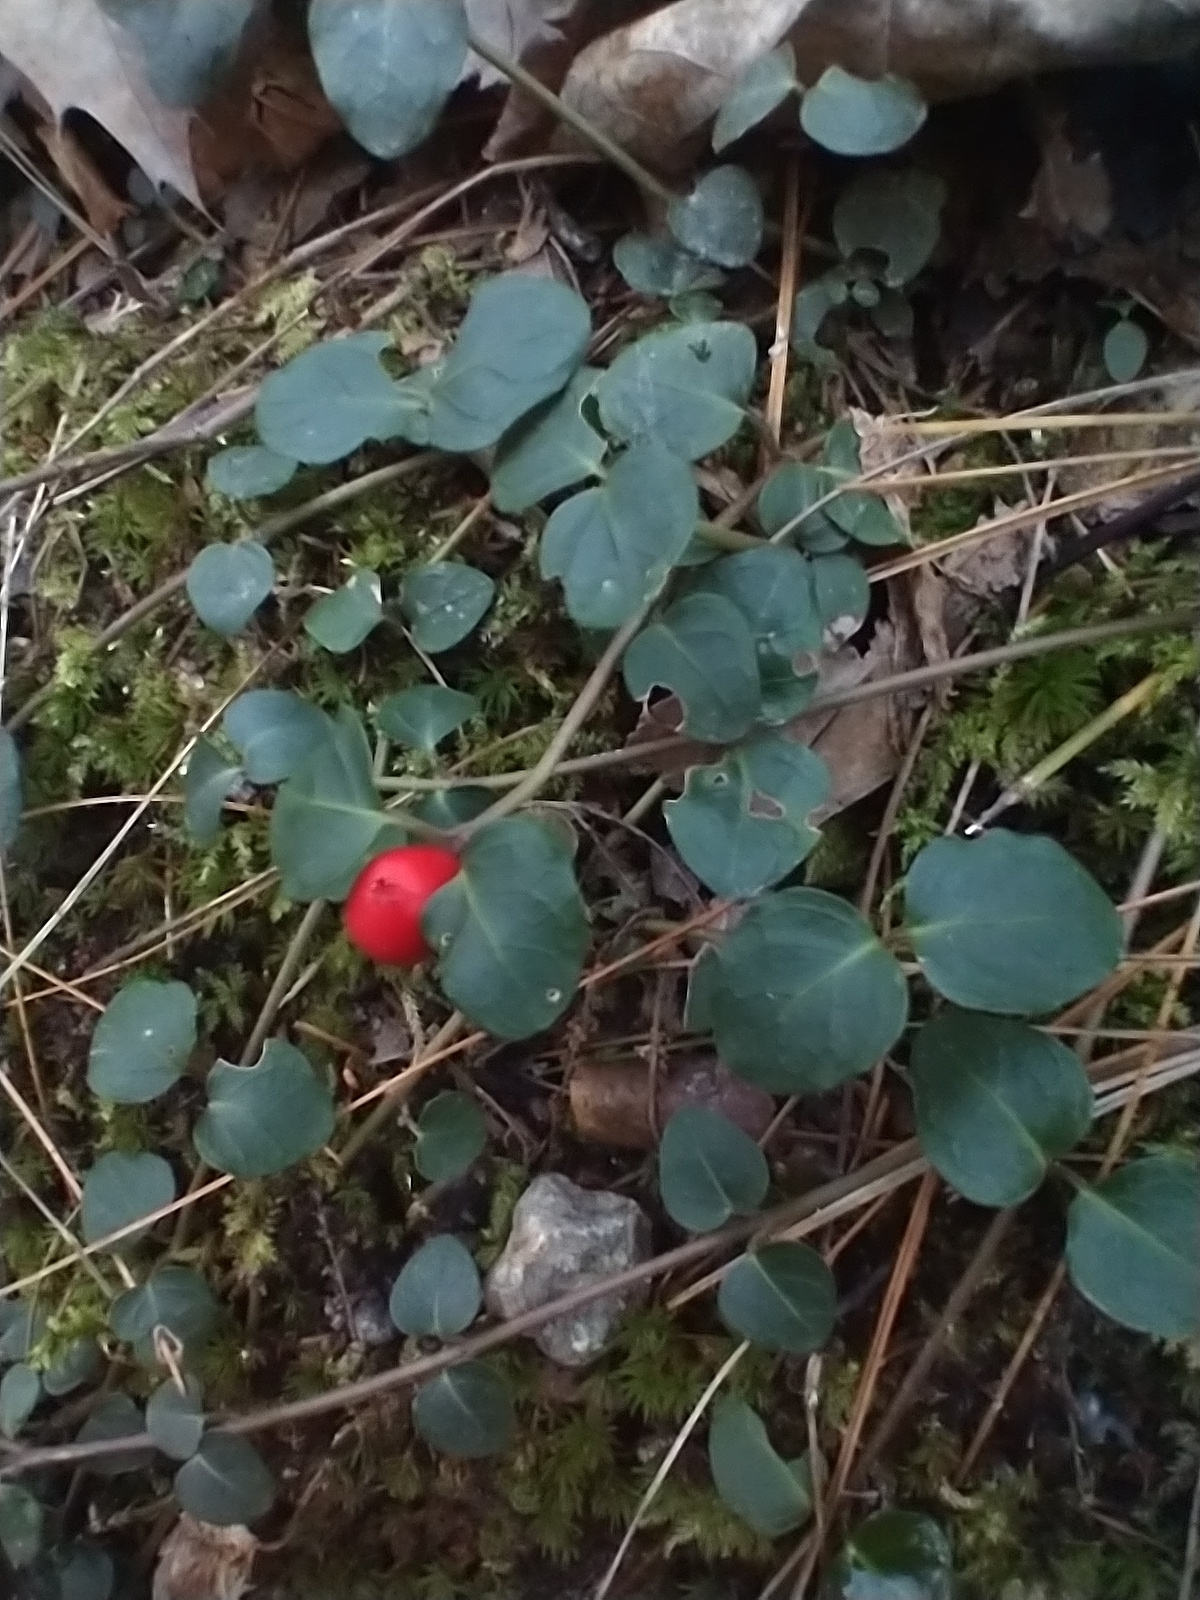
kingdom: Plantae
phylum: Tracheophyta
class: Magnoliopsida
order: Gentianales
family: Rubiaceae
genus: Mitchella
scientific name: Mitchella repens
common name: Partridge-berry
